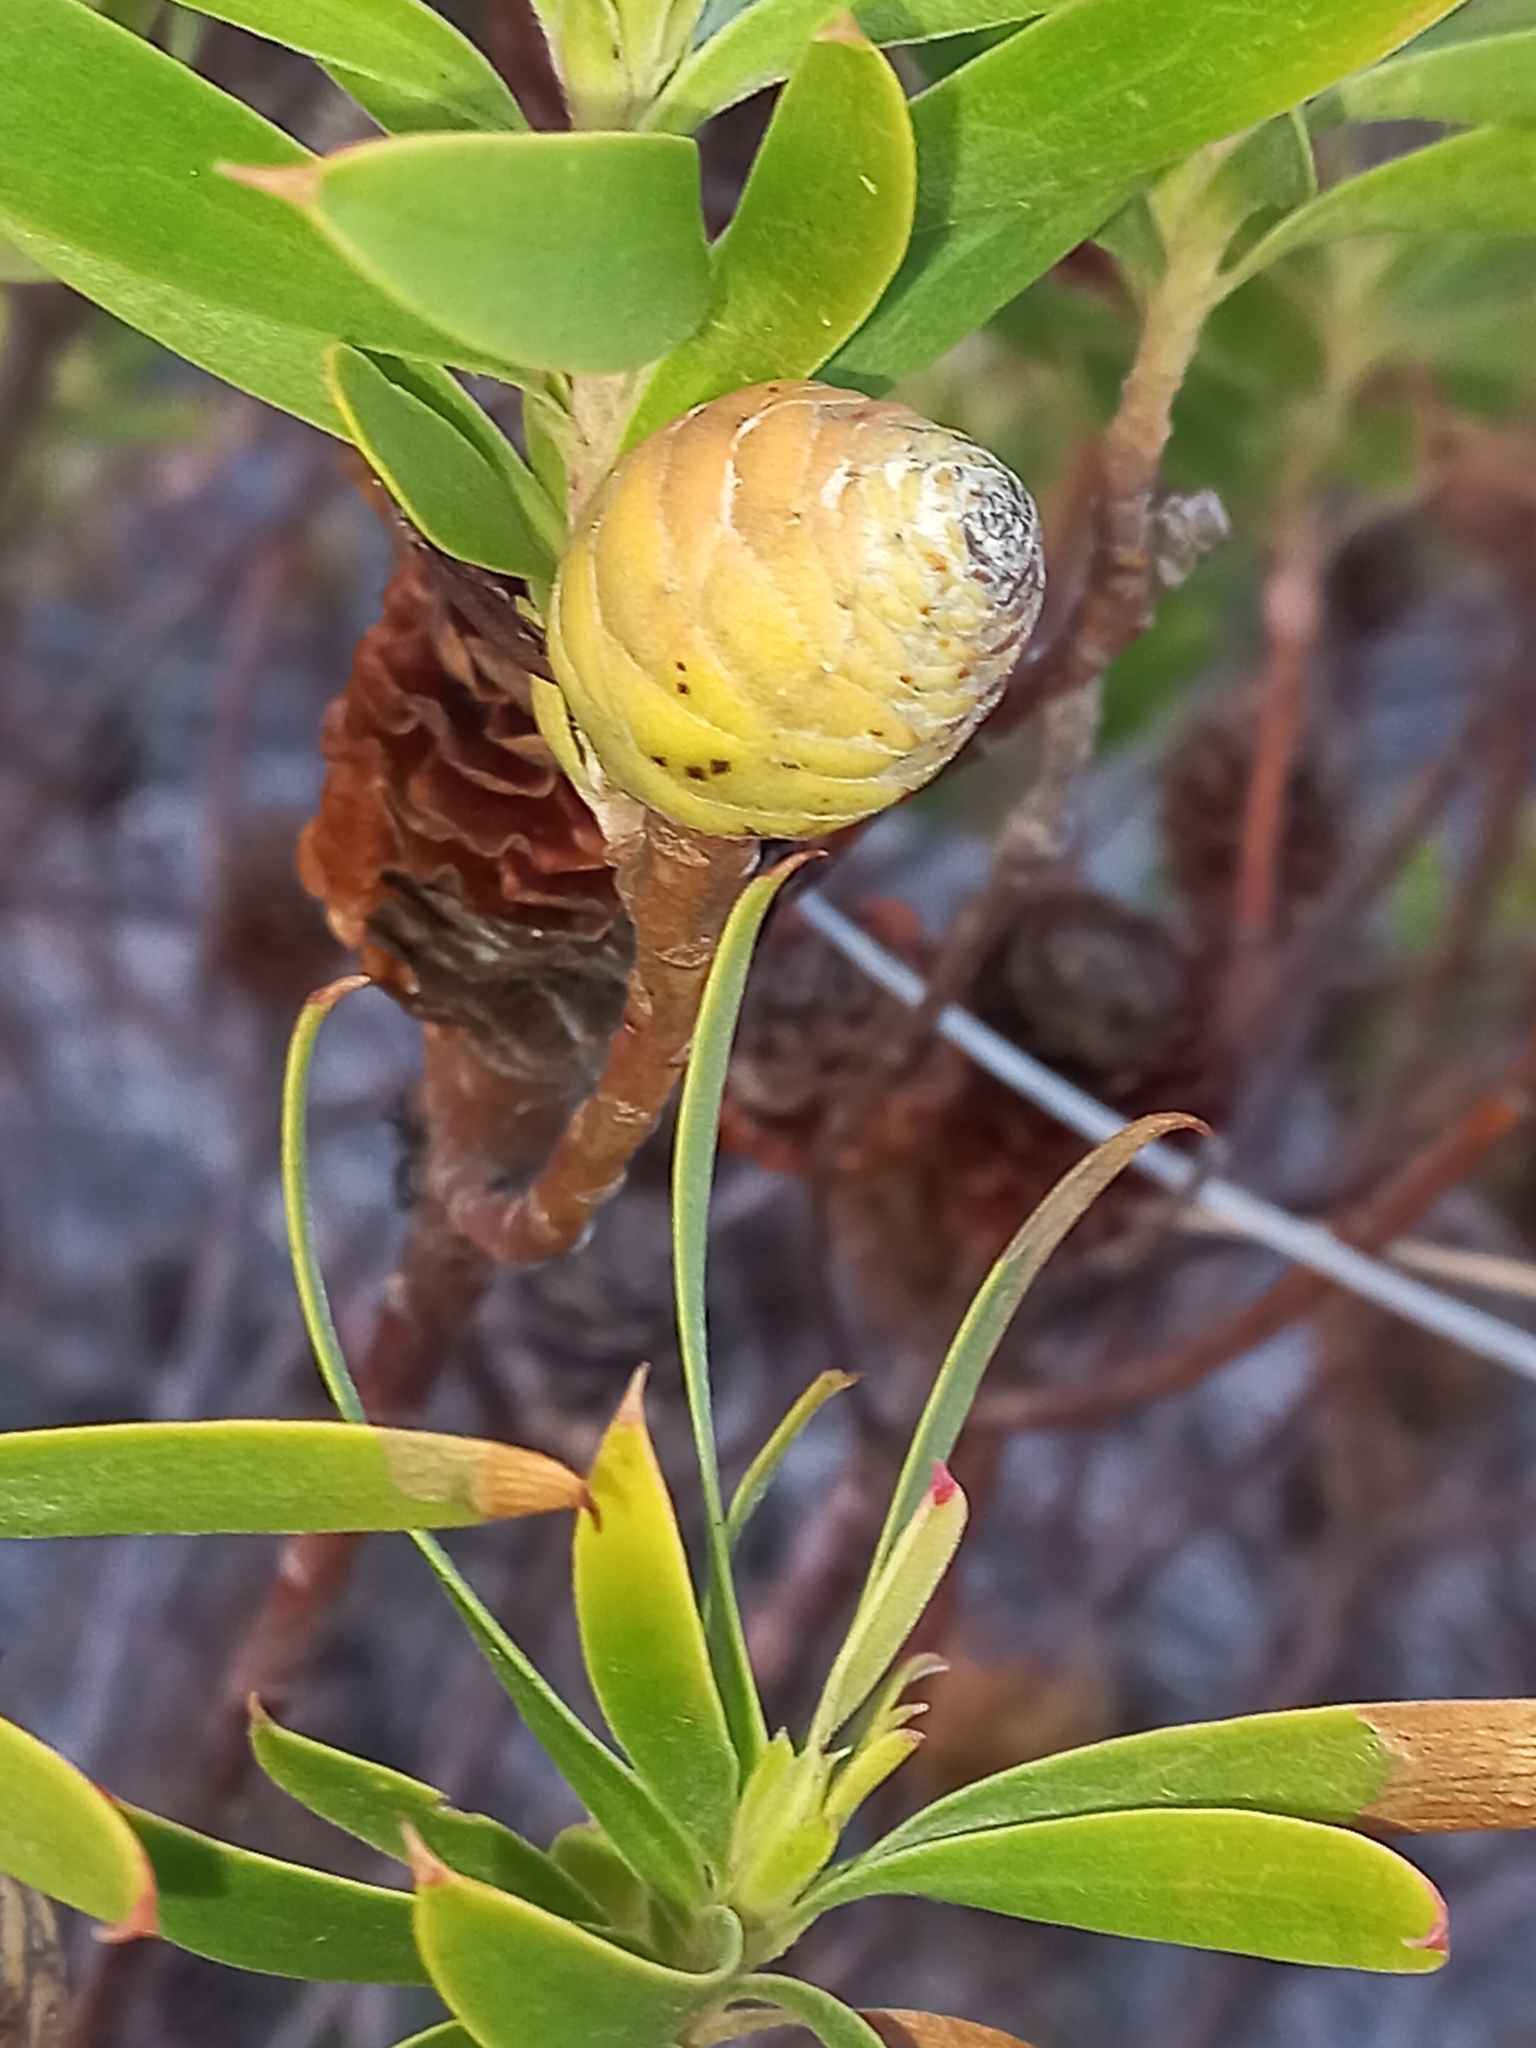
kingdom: Plantae
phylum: Tracheophyta
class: Magnoliopsida
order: Proteales
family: Proteaceae
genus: Leucadendron
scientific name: Leucadendron coniferum
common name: Dune conebush
